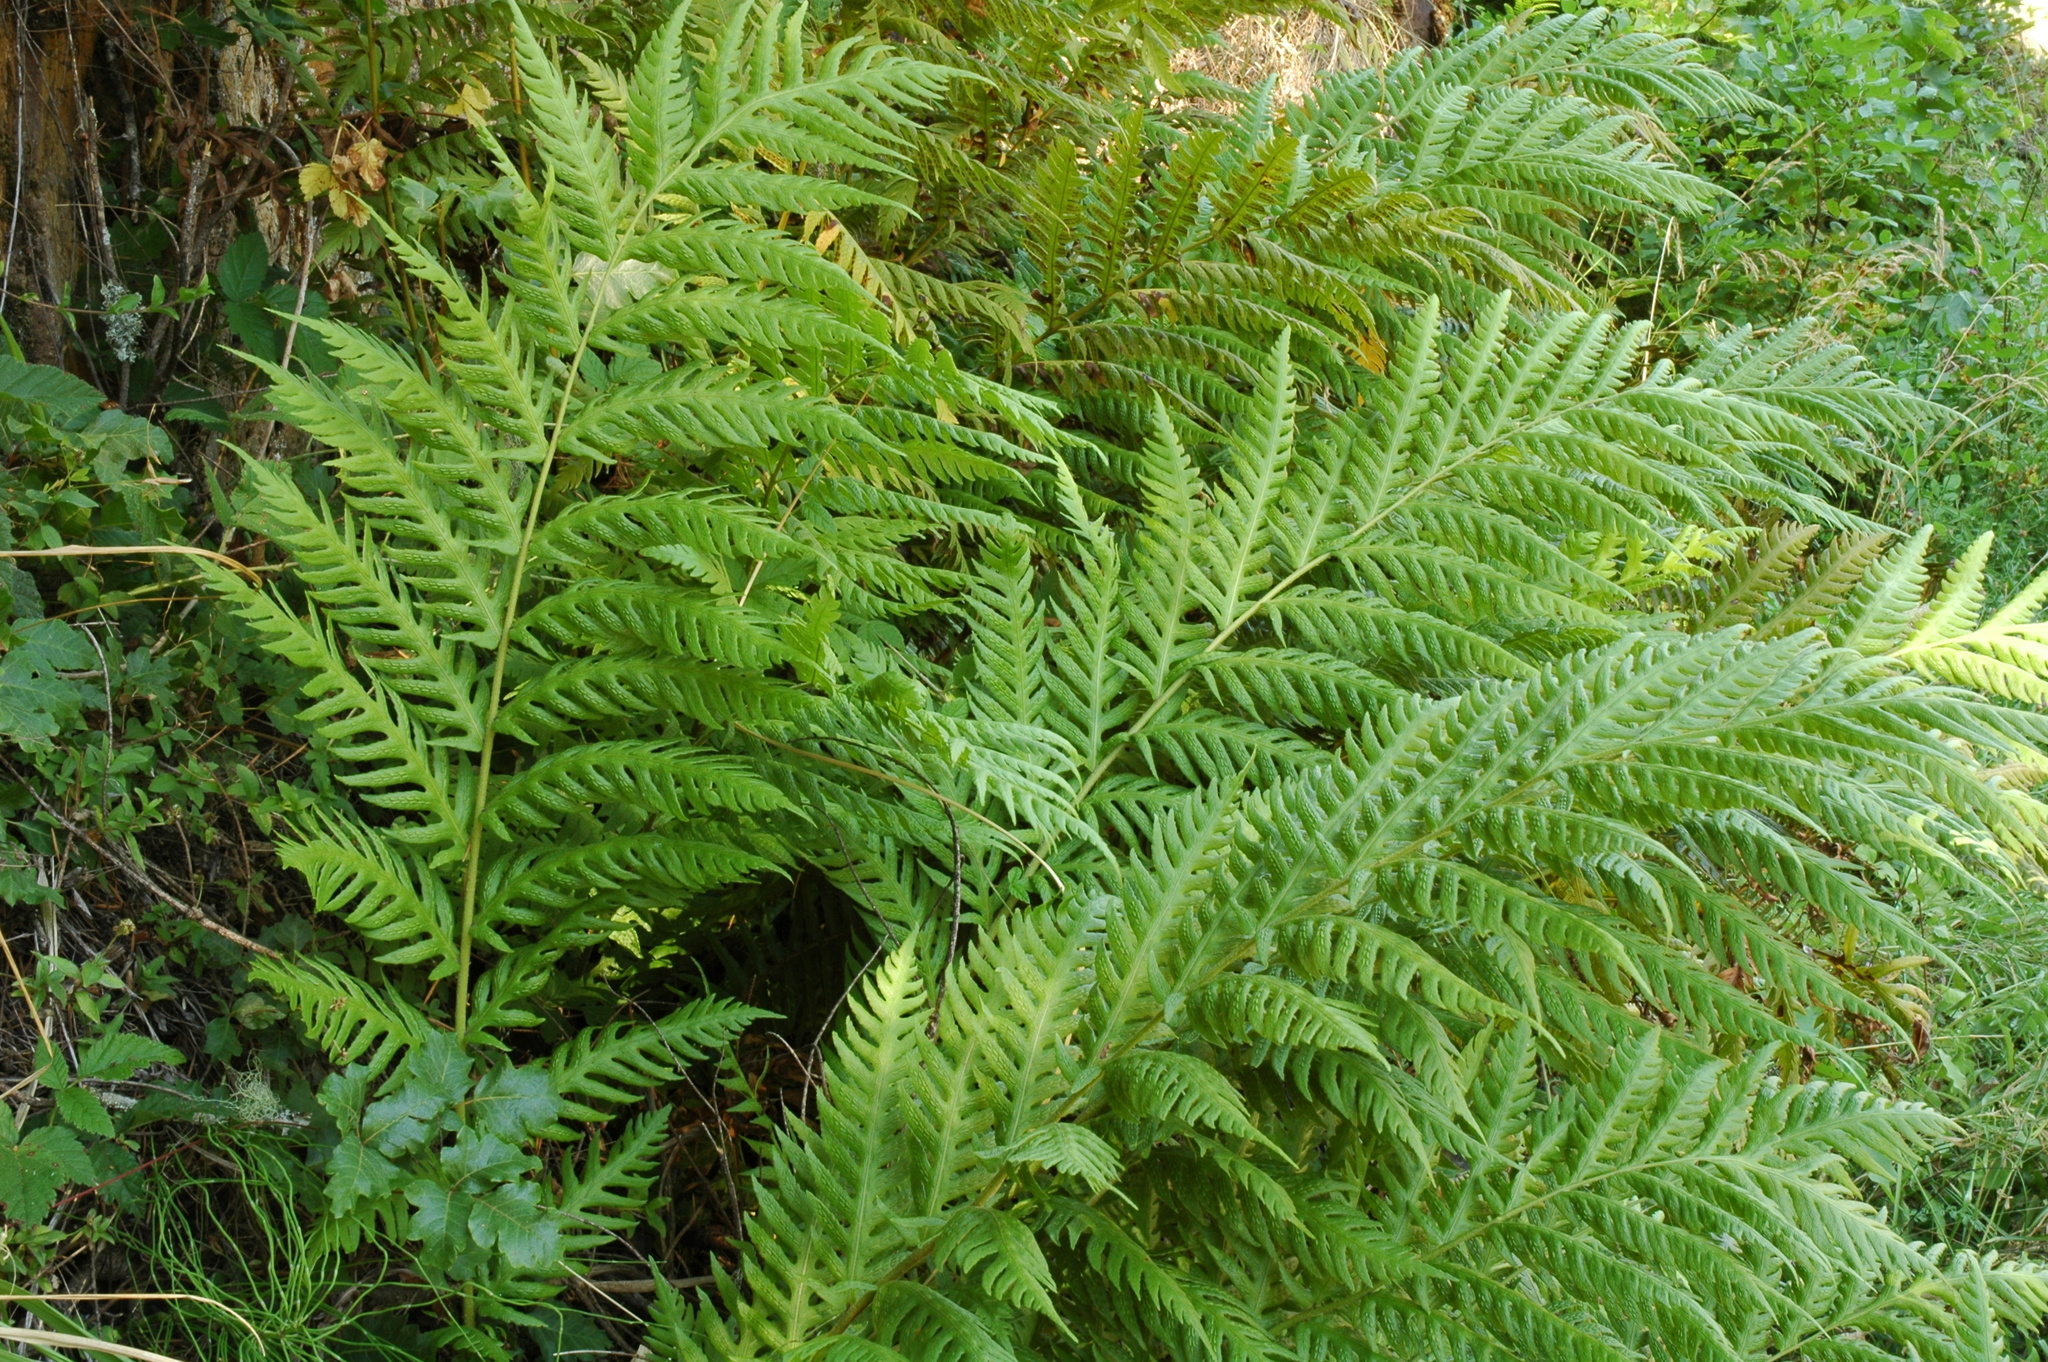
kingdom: Plantae
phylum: Tracheophyta
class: Polypodiopsida
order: Polypodiales
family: Blechnaceae
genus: Woodwardia
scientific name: Woodwardia fimbriata
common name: Giant chain fern
